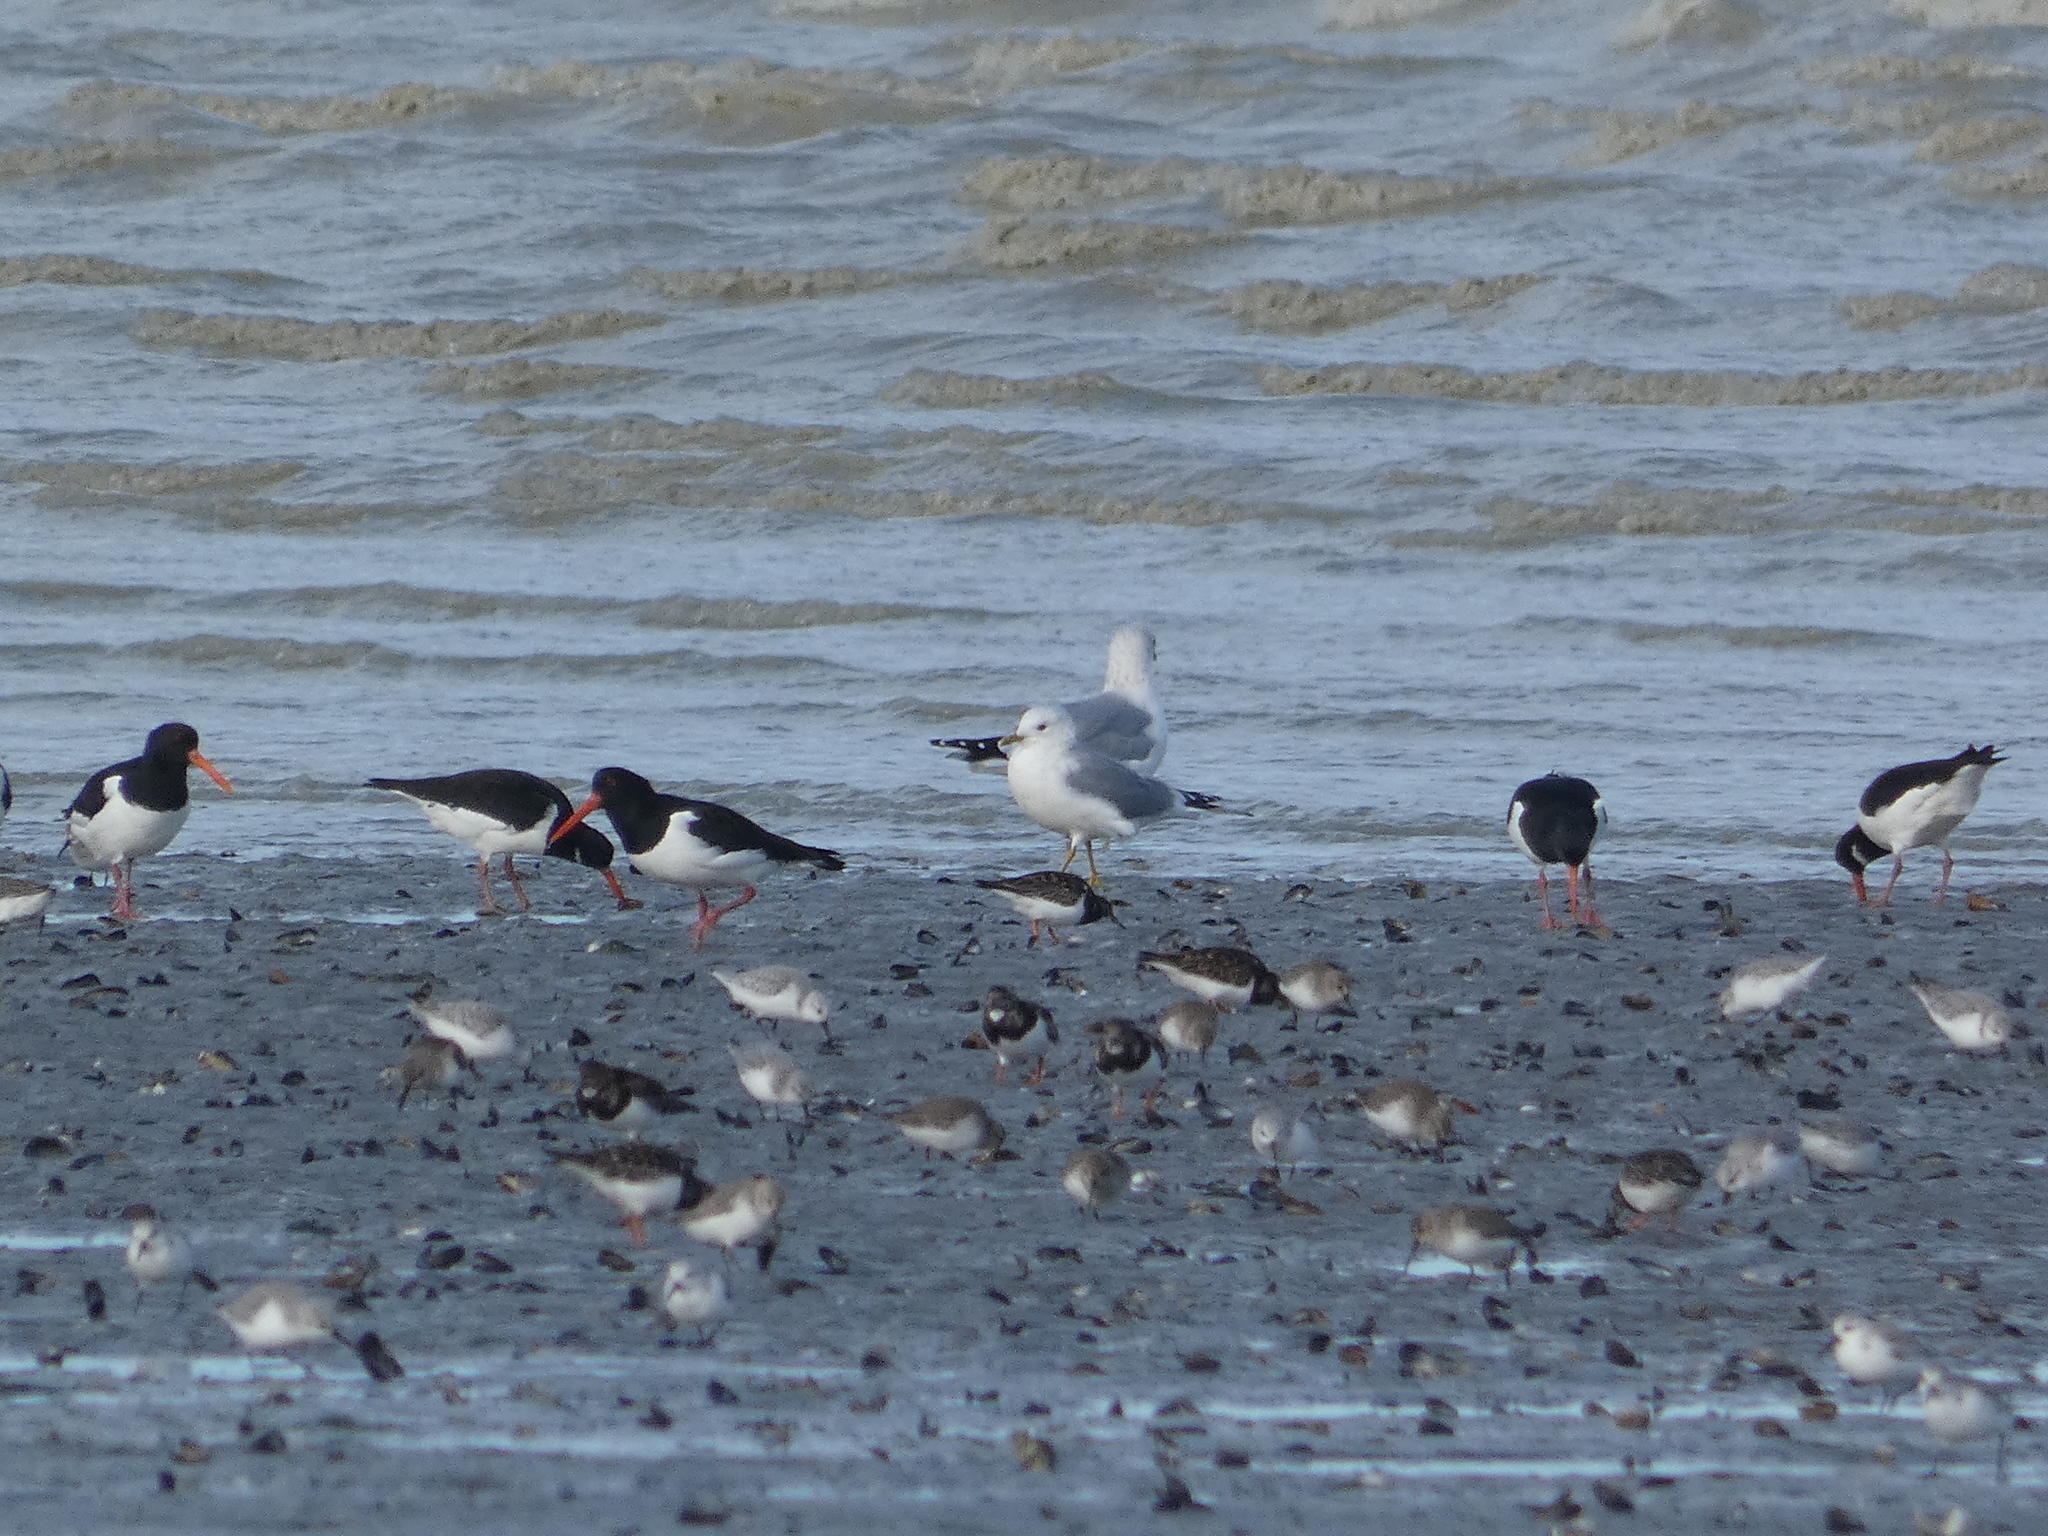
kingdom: Animalia
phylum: Chordata
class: Aves
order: Charadriiformes
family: Scolopacidae
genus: Calidris
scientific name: Calidris alpina
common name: Dunlin
